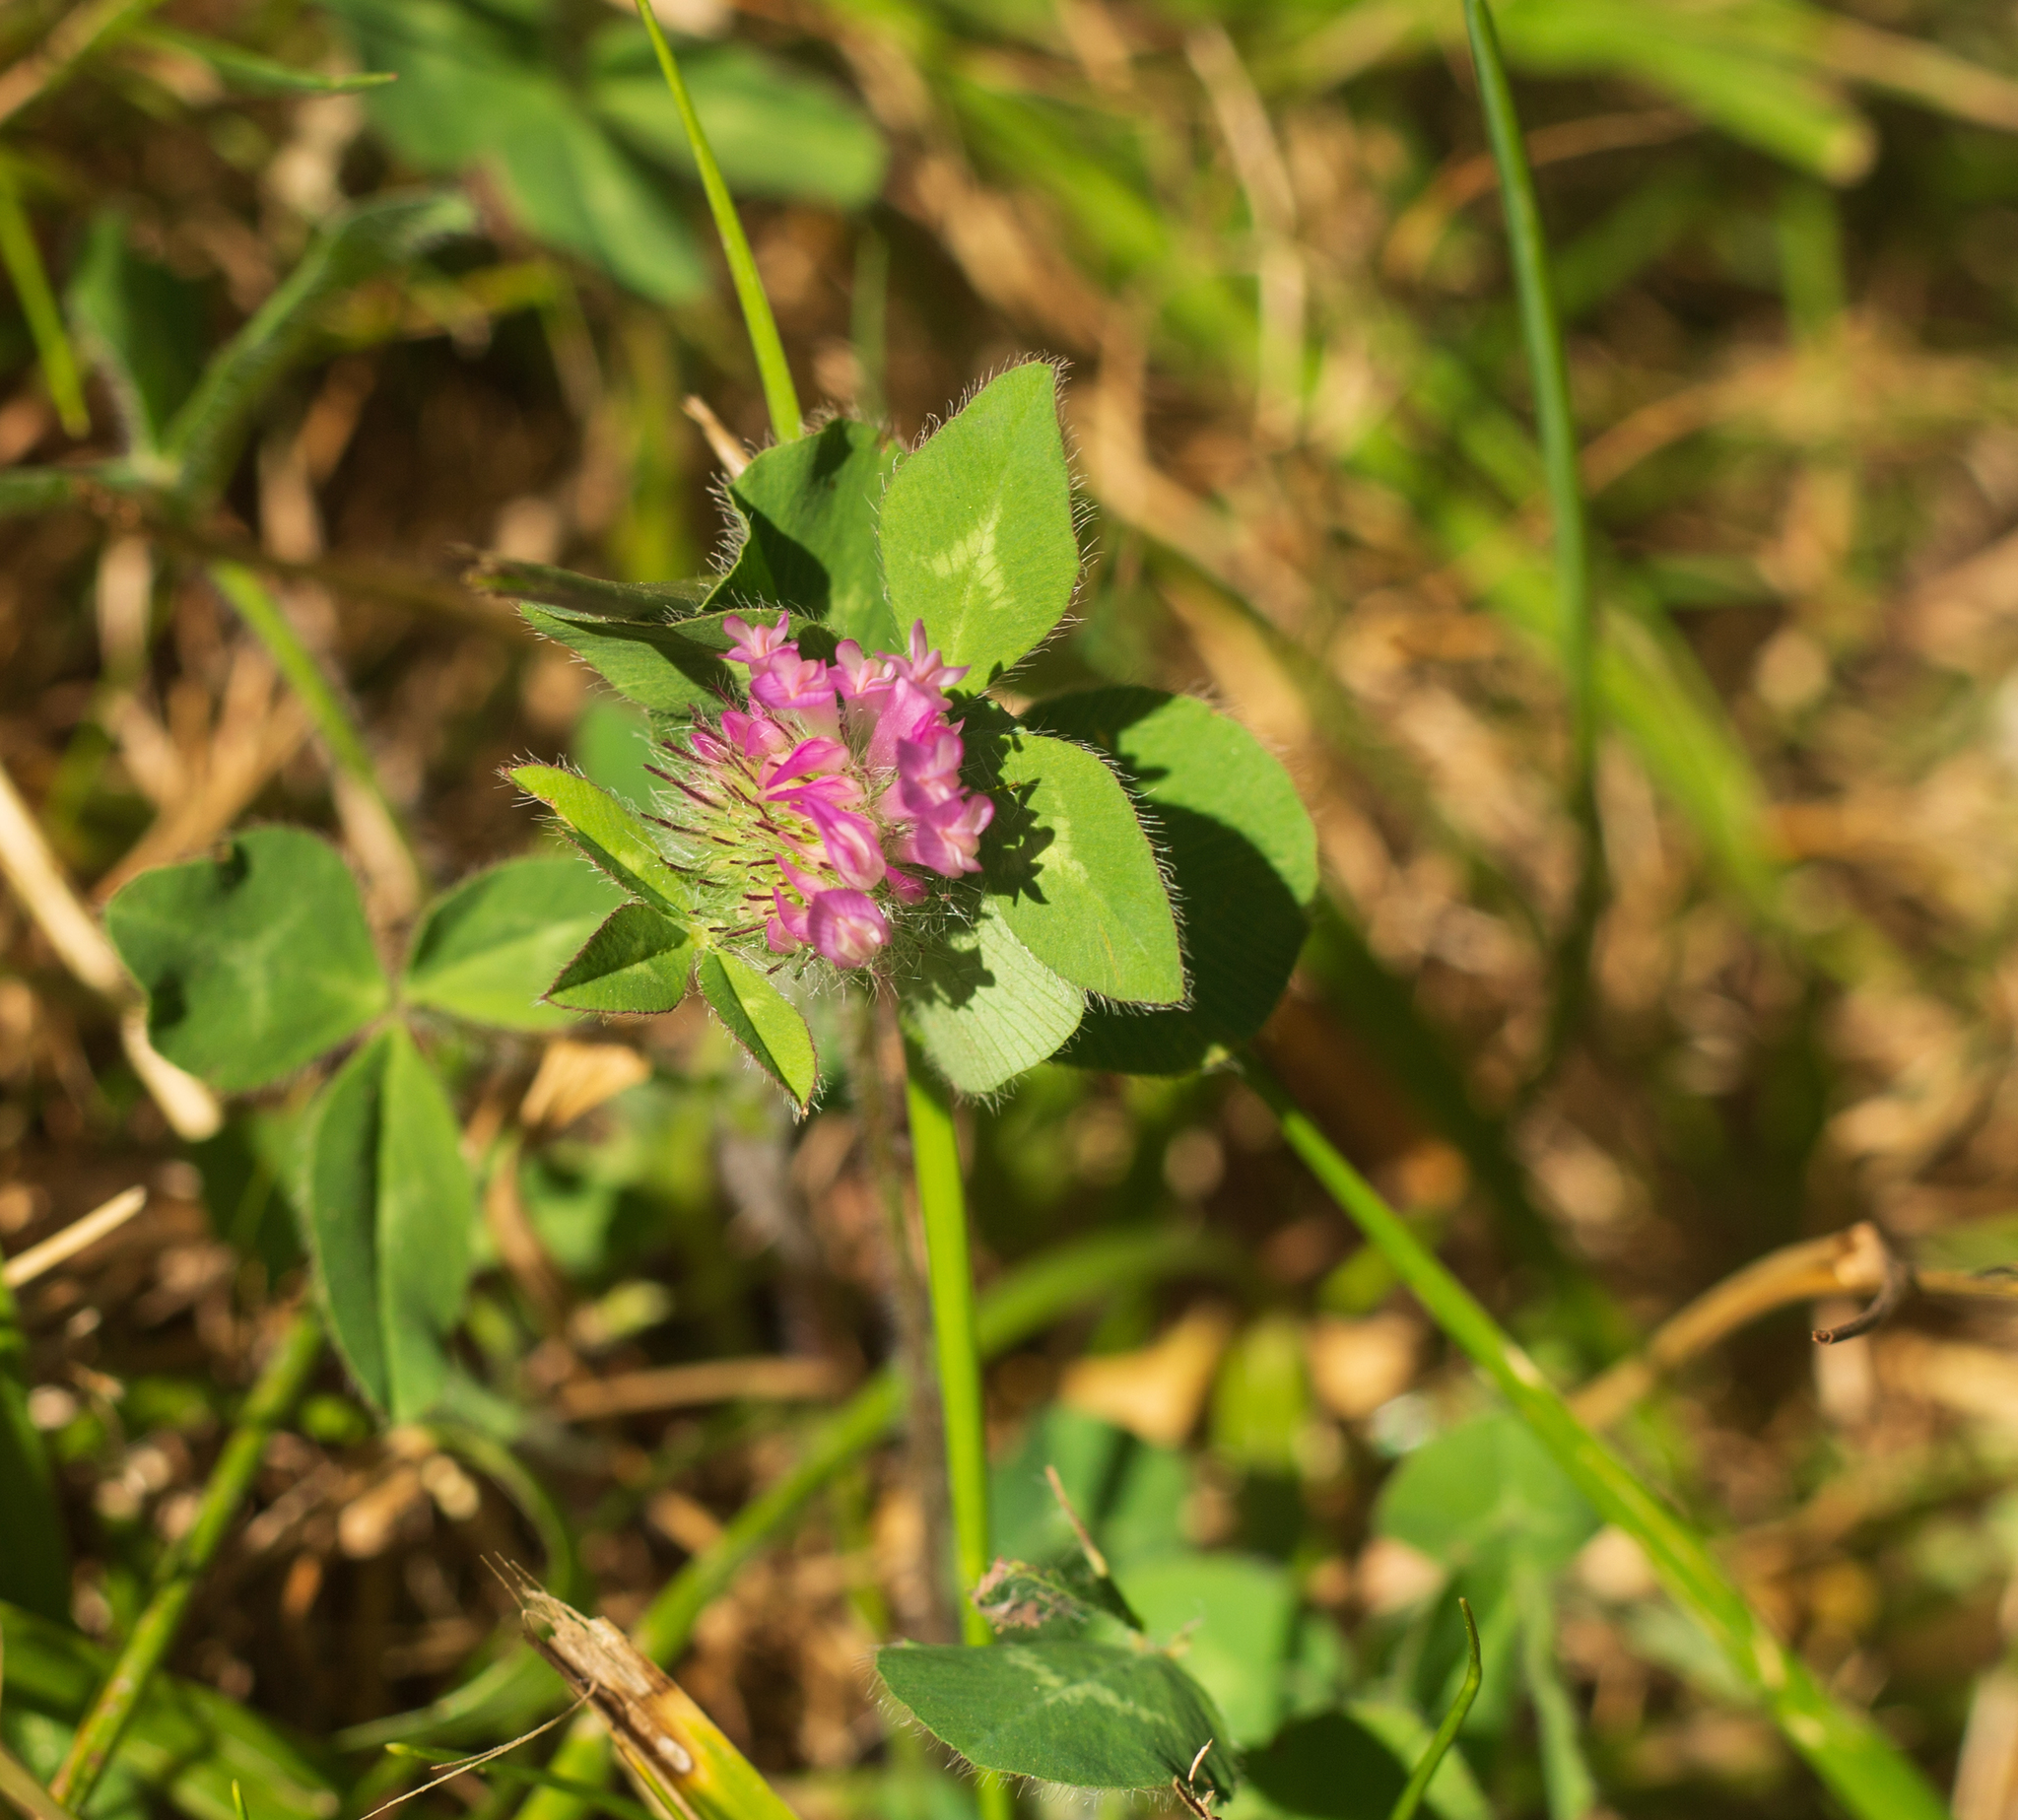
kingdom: Plantae
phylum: Tracheophyta
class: Magnoliopsida
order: Fabales
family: Fabaceae
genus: Trifolium
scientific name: Trifolium pratense
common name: Red clover
